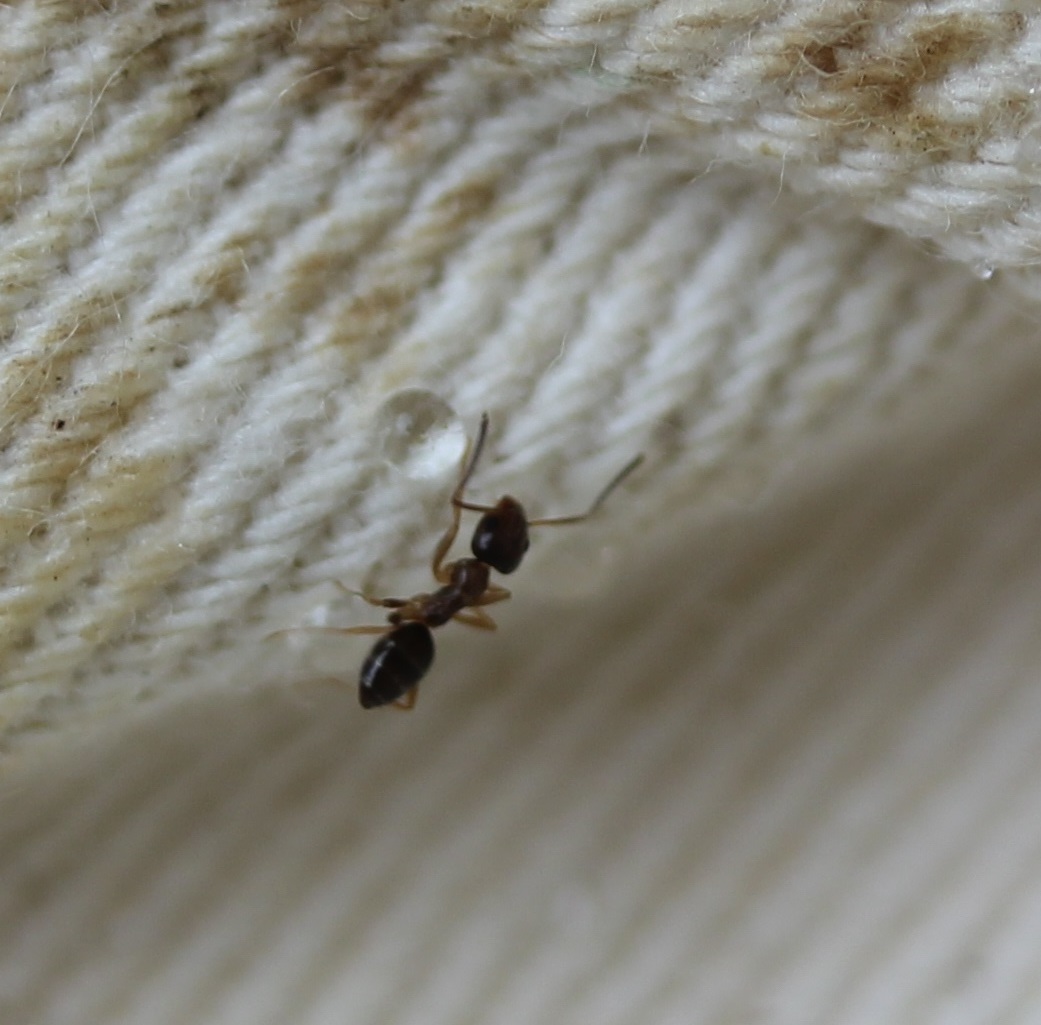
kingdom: Animalia
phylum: Arthropoda
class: Insecta
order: Hymenoptera
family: Formicidae
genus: Tapinoma
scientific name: Tapinoma sessile
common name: Odorous house ant
